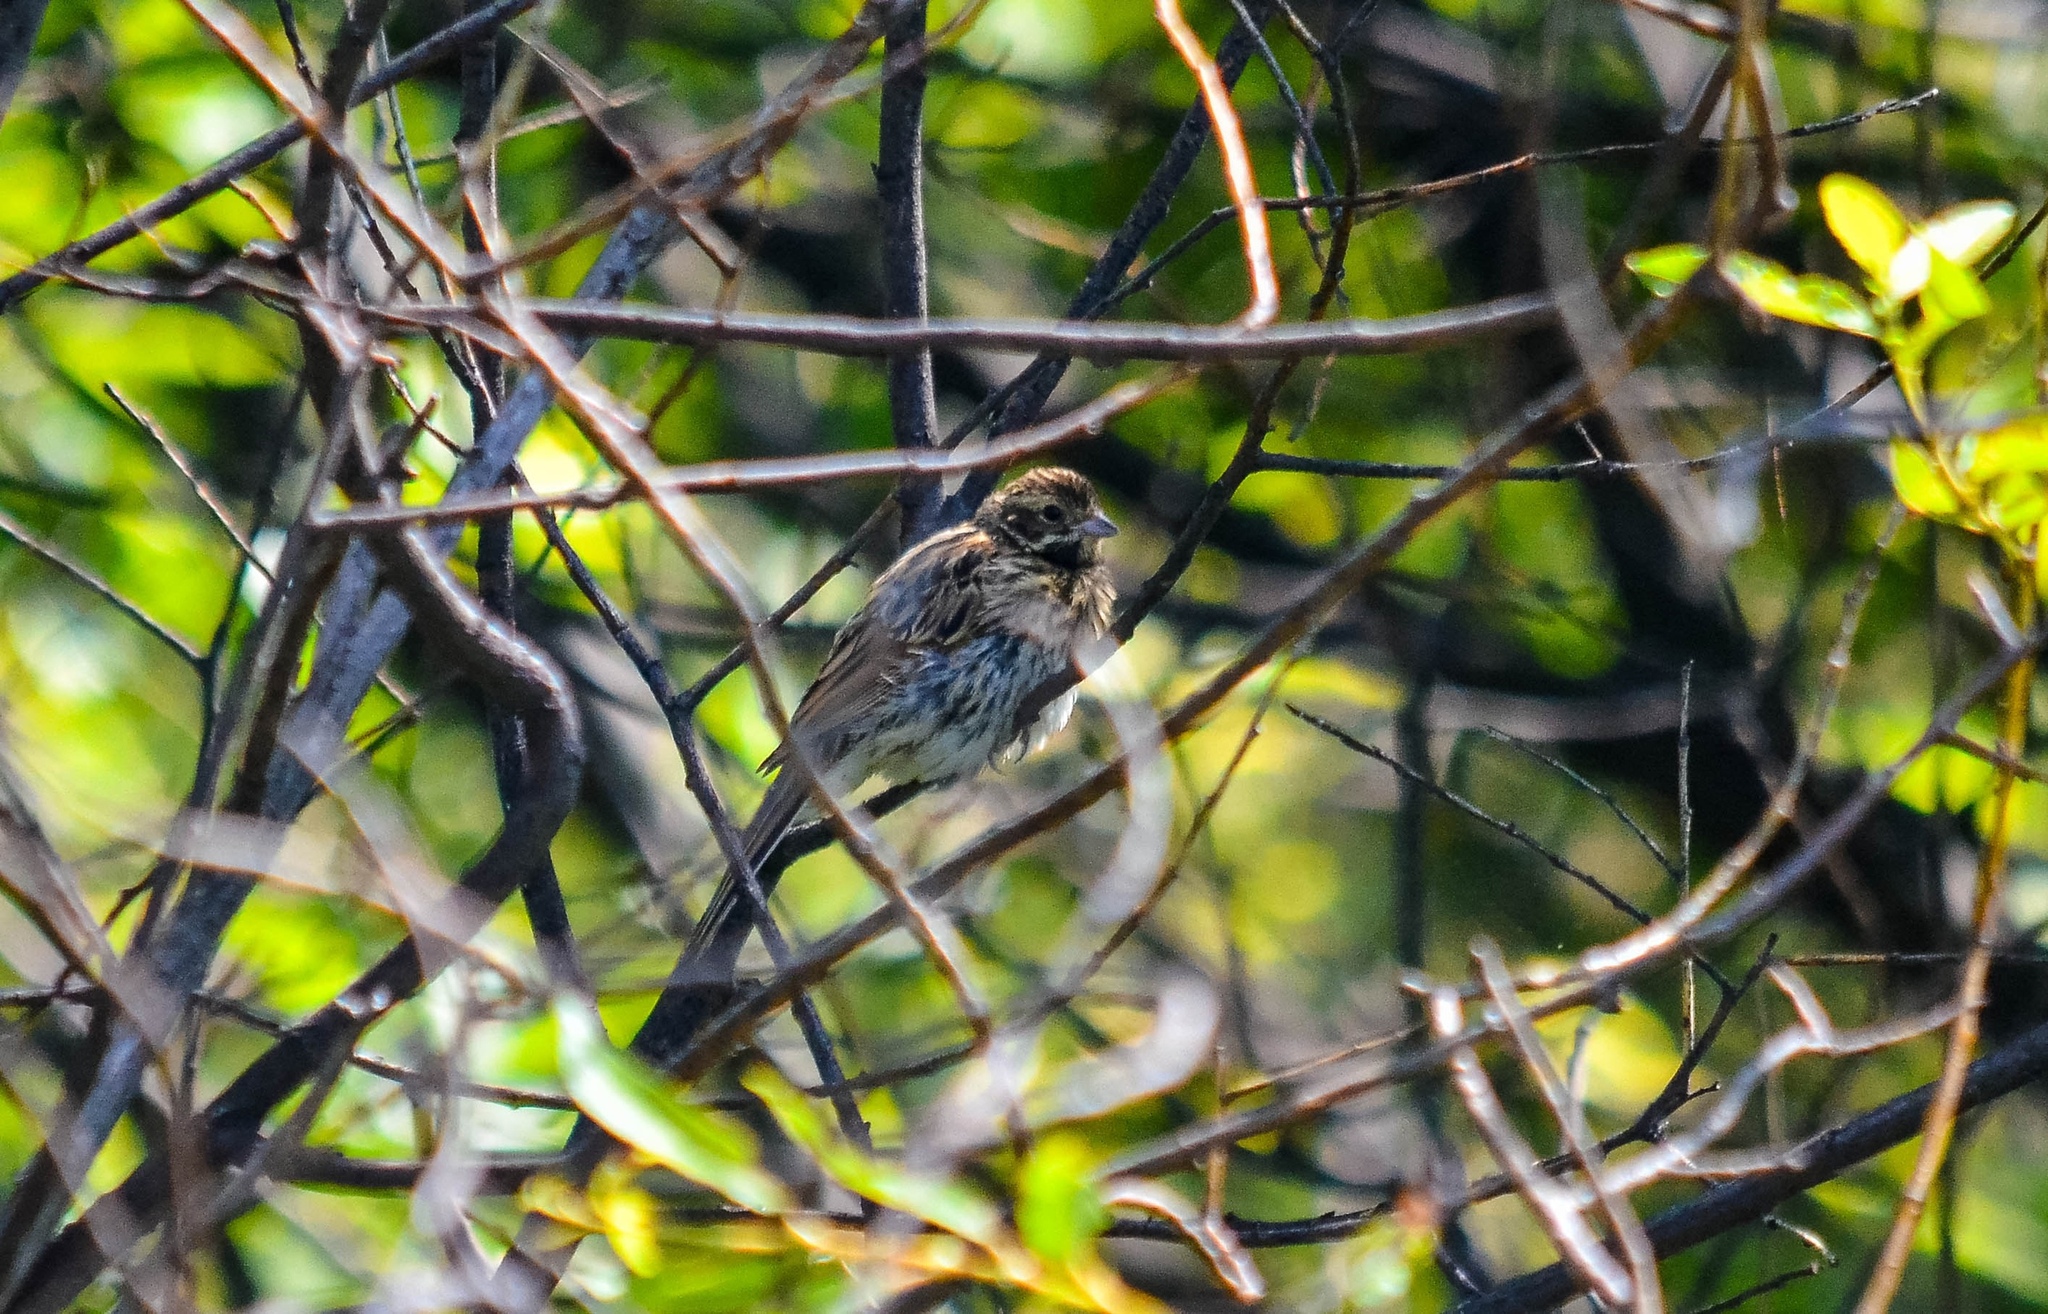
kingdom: Animalia
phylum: Chordata
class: Aves
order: Passeriformes
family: Emberizidae
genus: Emberiza
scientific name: Emberiza schoeniclus
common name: Reed bunting
